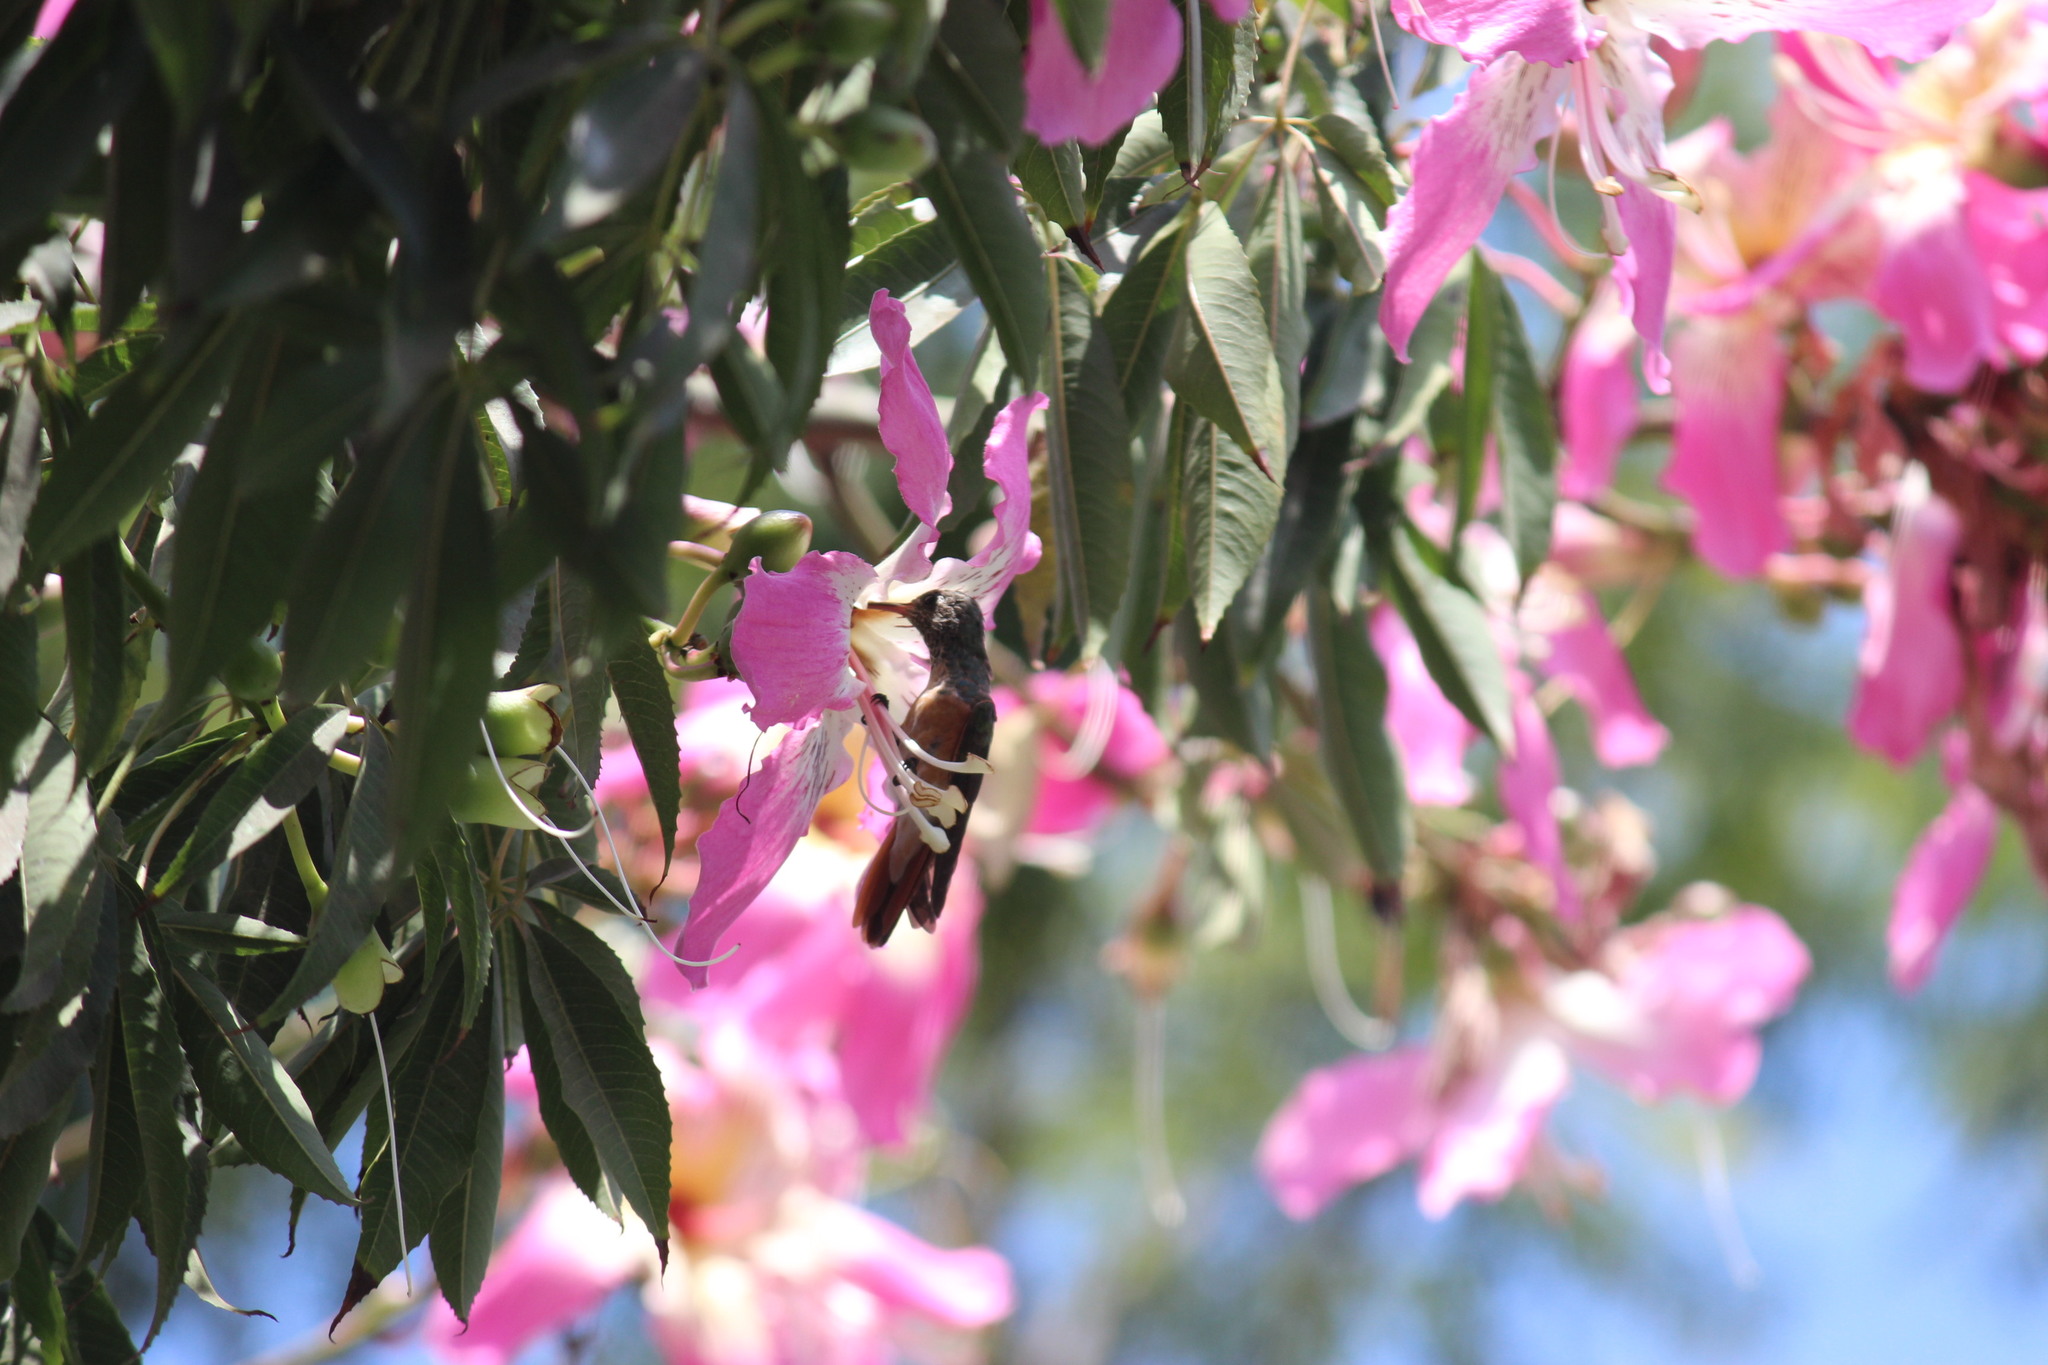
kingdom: Animalia
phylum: Chordata
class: Aves
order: Apodiformes
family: Trochilidae
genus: Amazilis
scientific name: Amazilis amazilia
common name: Amazilia hummingbird
